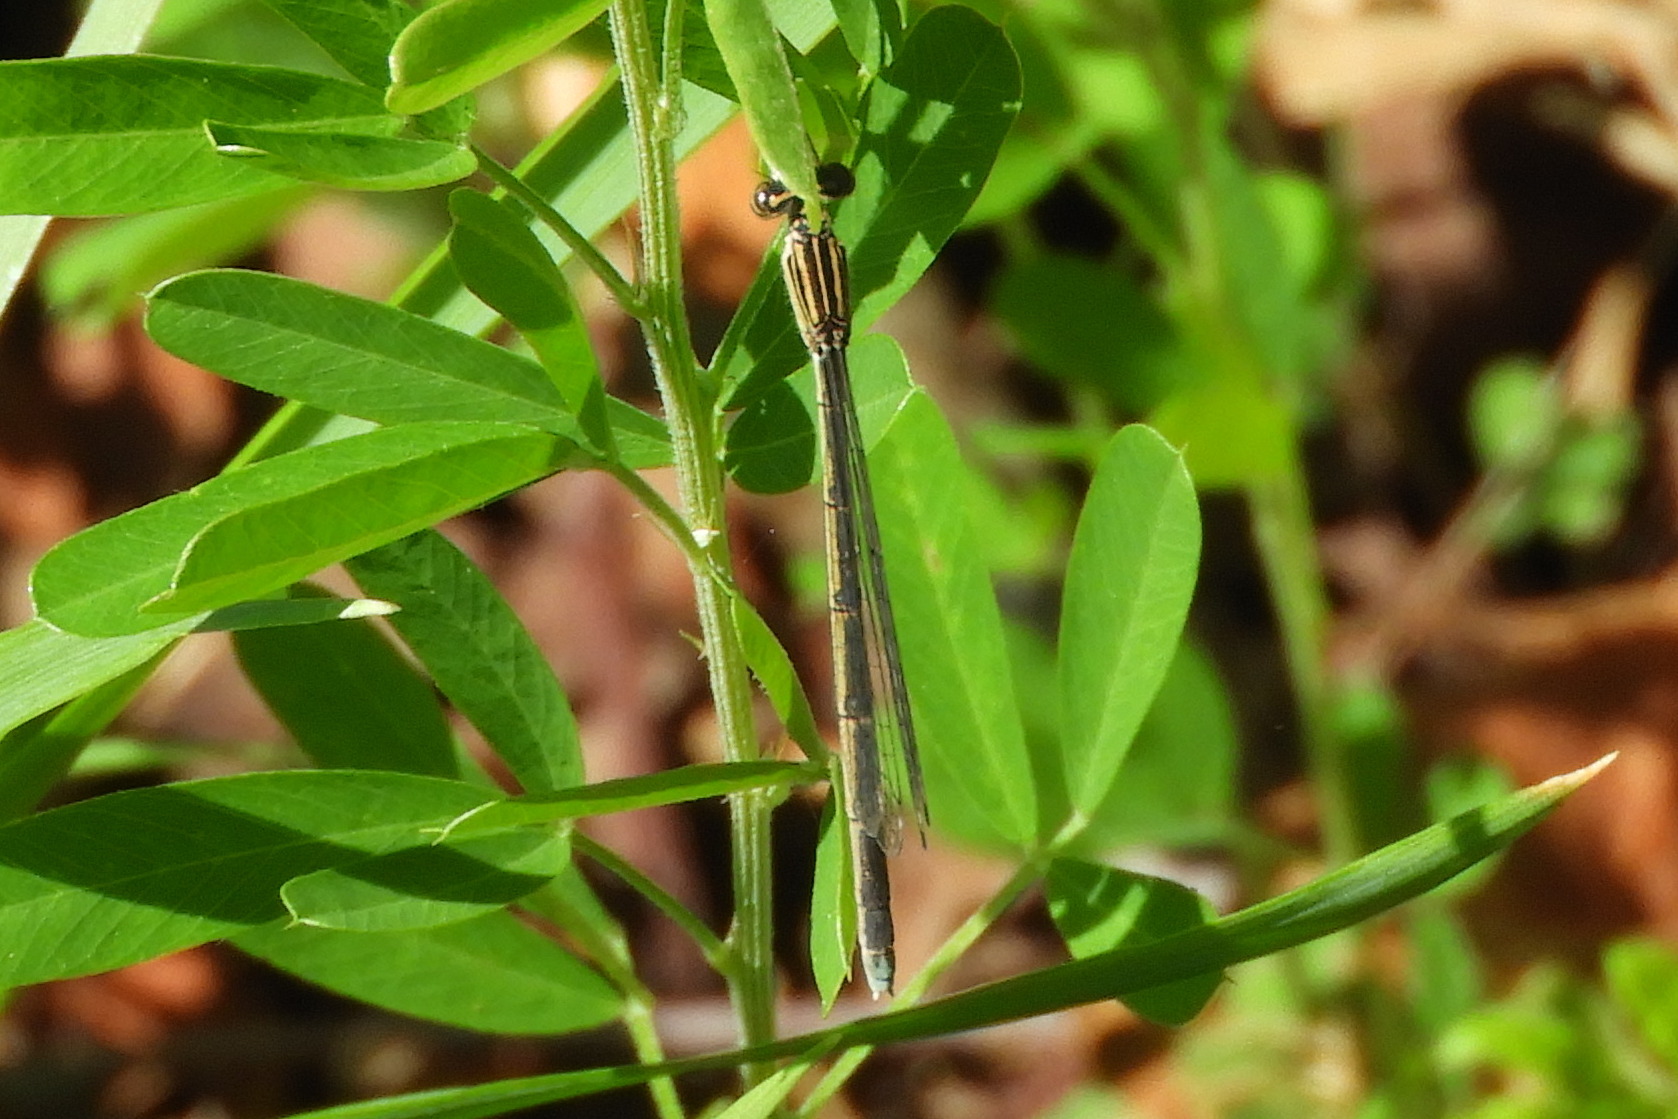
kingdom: Animalia
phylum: Arthropoda
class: Insecta
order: Odonata
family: Coenagrionidae
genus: Enallagma
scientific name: Enallagma basidens
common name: Double-striped bluet
